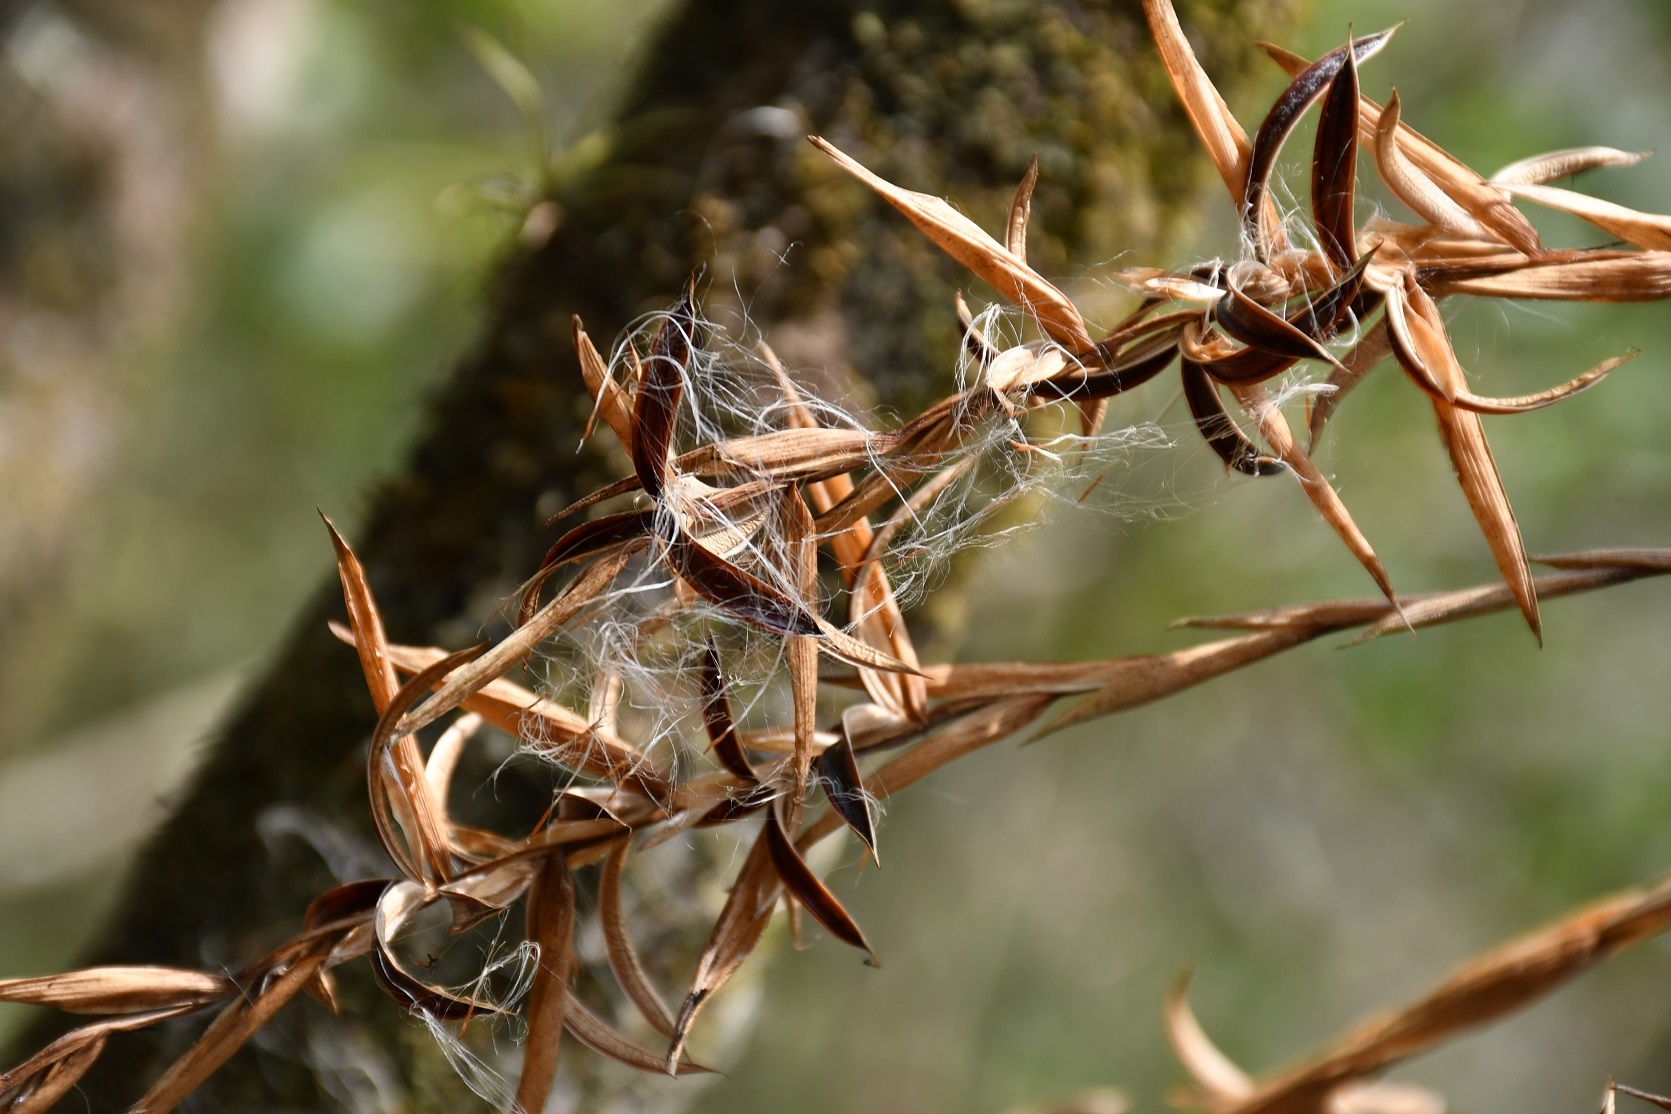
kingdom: Plantae
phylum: Tracheophyta
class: Liliopsida
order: Poales
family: Bromeliaceae
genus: Tillandsia
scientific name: Tillandsia flabellata
